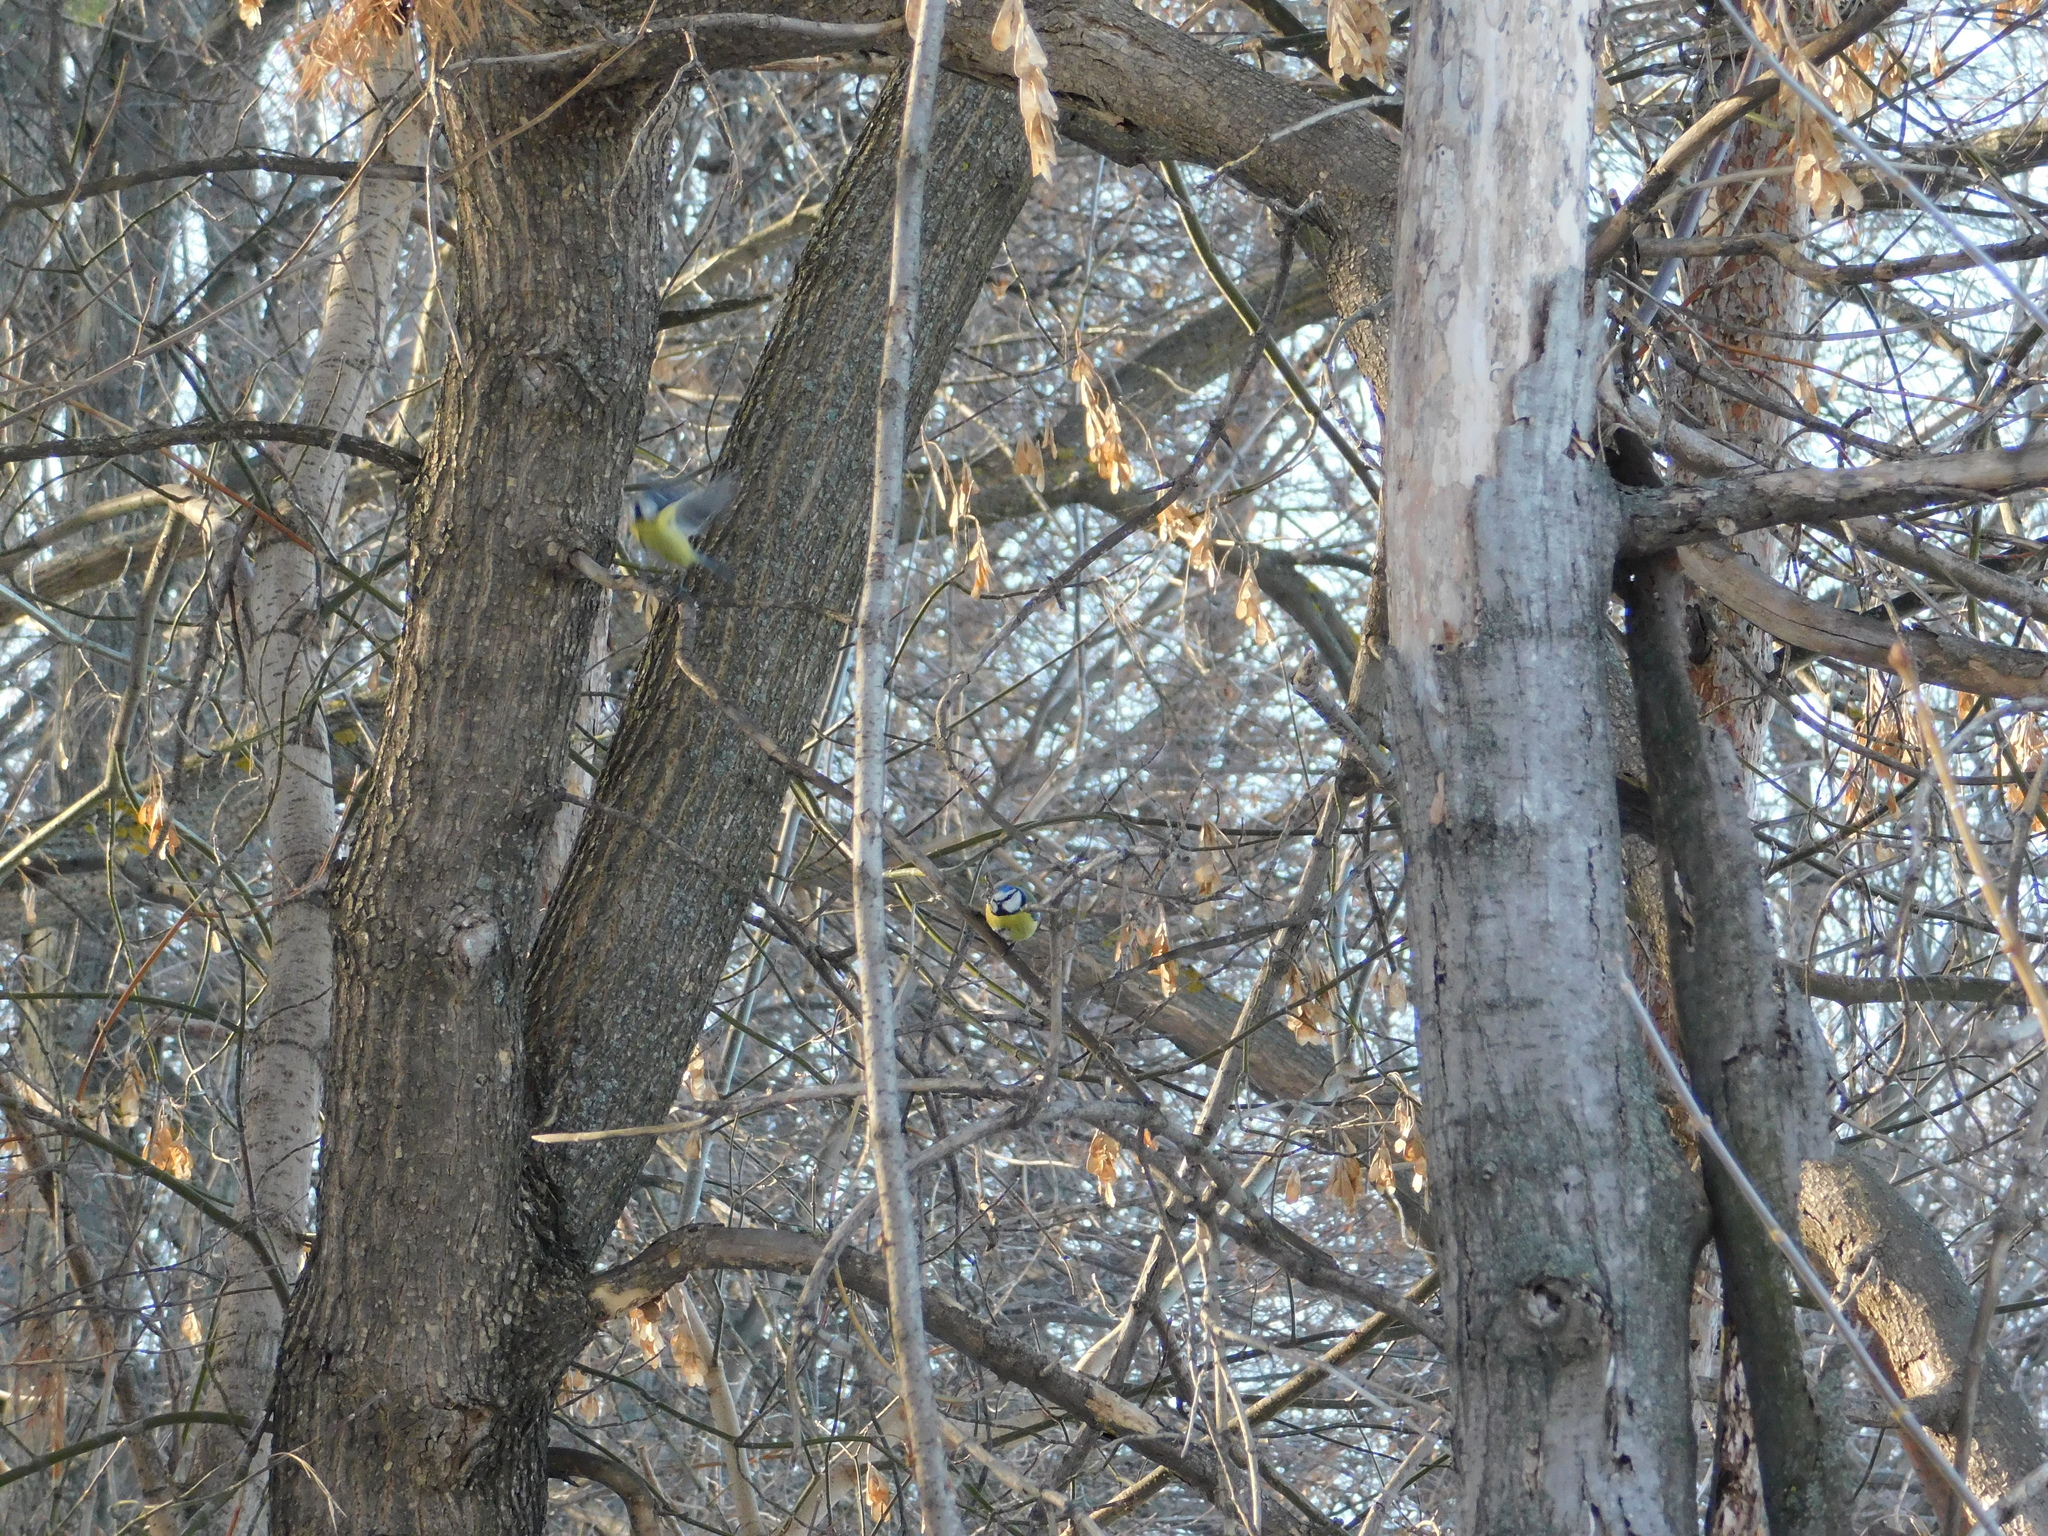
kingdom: Animalia
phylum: Chordata
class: Aves
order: Passeriformes
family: Paridae
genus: Cyanistes
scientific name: Cyanistes caeruleus
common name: Eurasian blue tit
